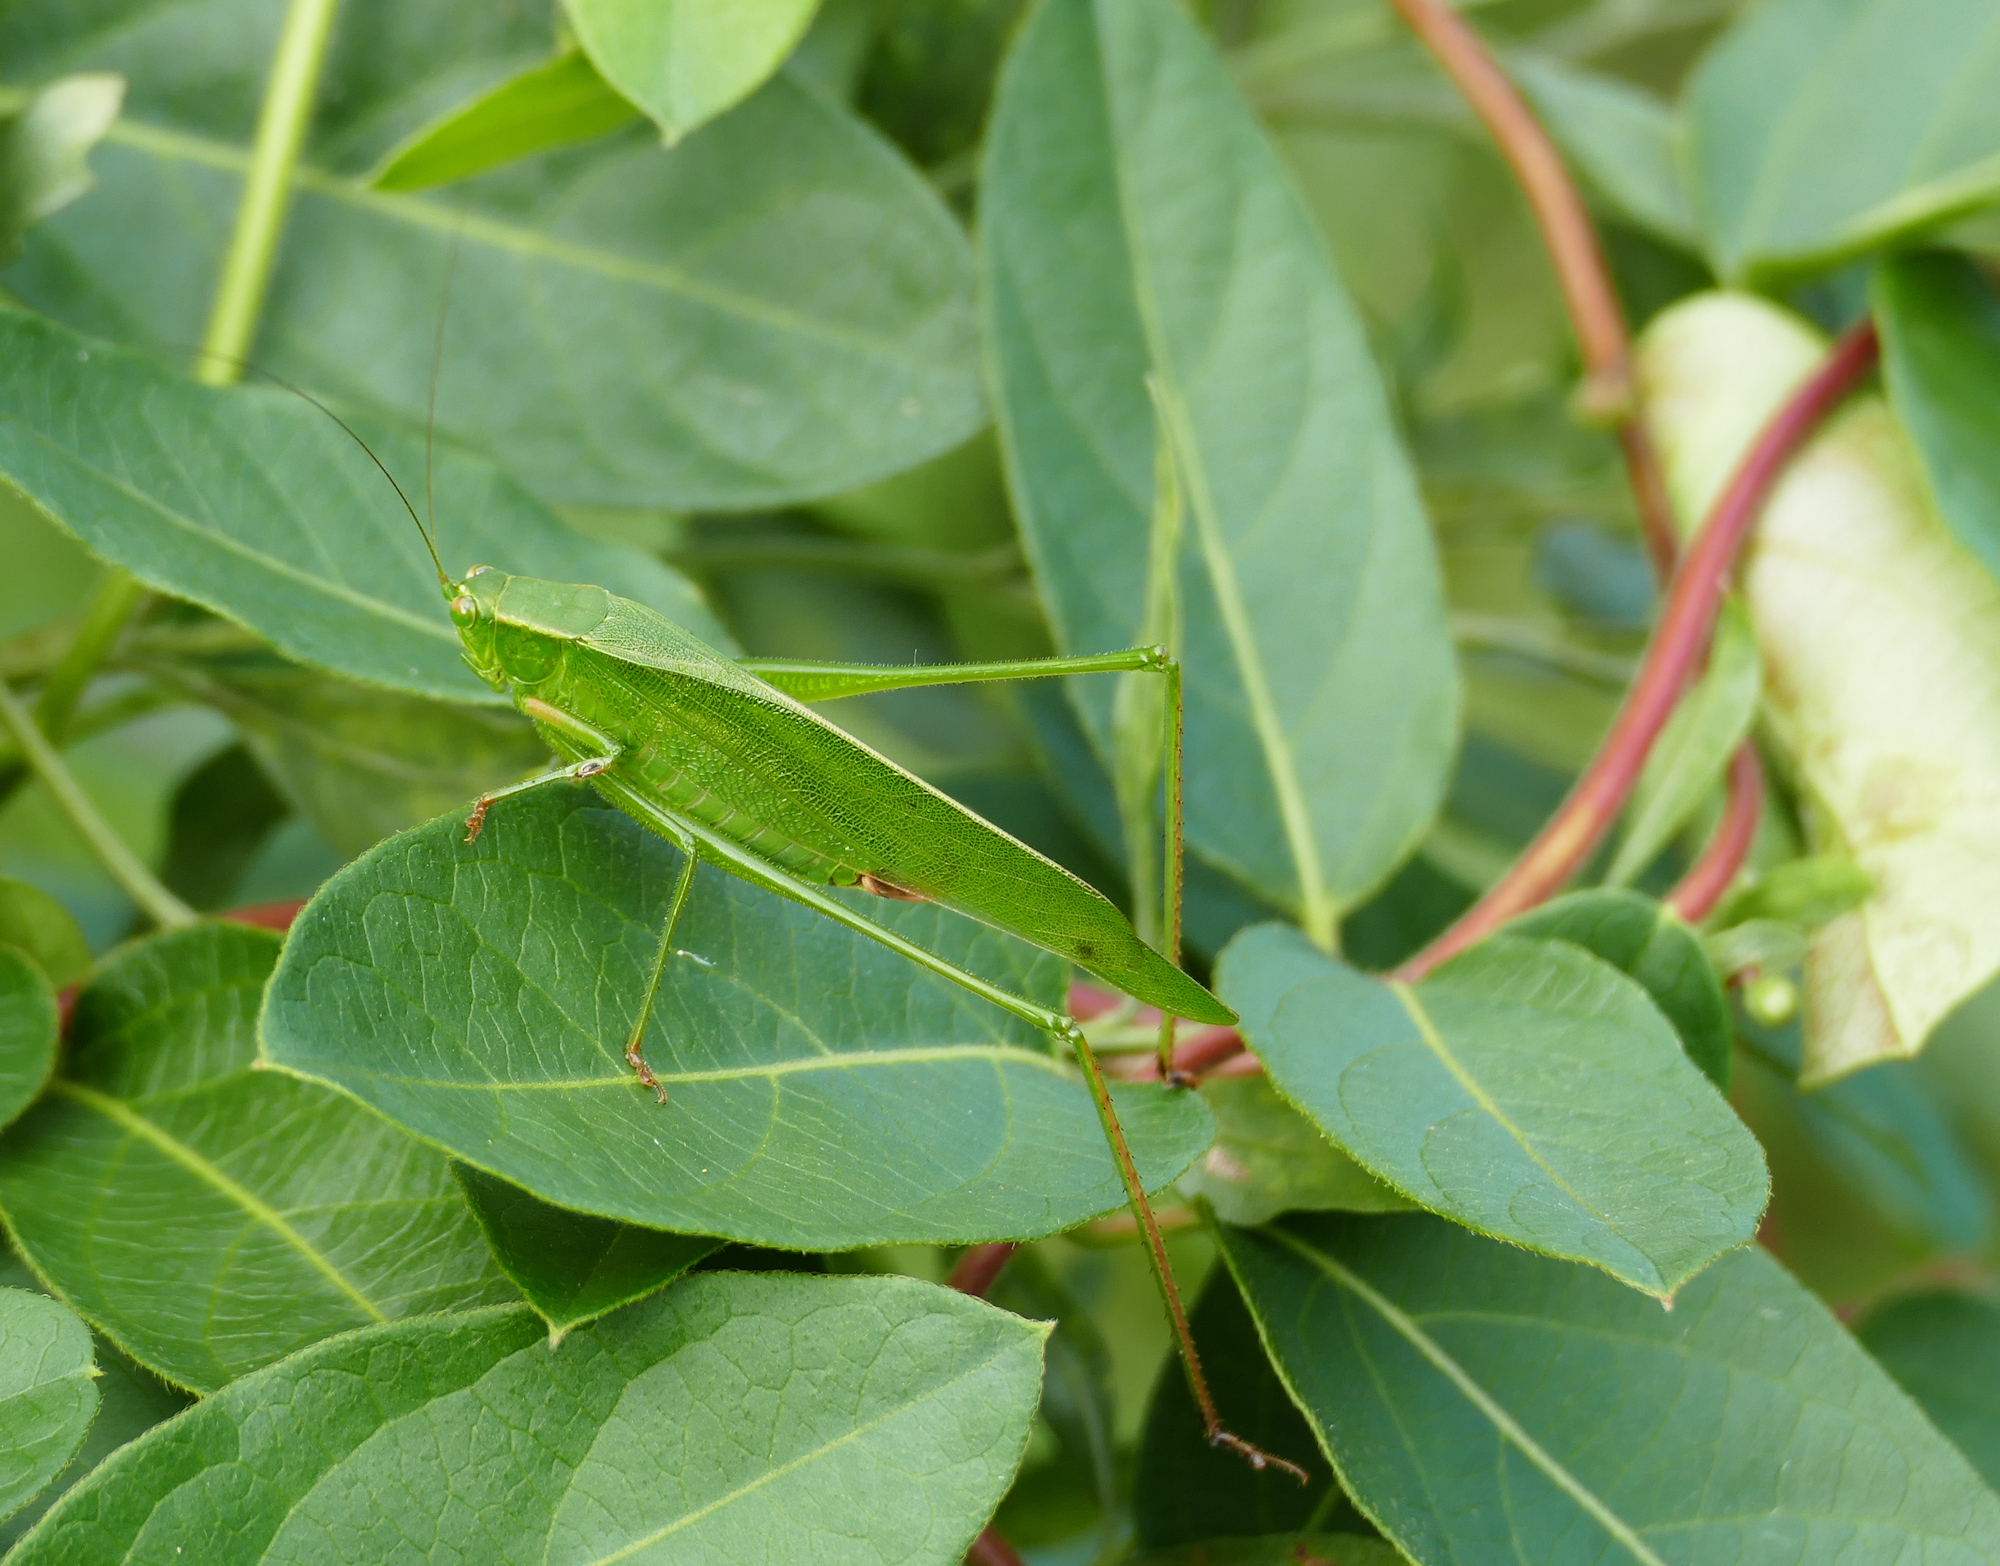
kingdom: Animalia
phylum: Arthropoda
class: Insecta
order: Orthoptera
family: Tettigoniidae
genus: Scudderia
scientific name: Scudderia furcata
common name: Fork-tailed bush katydid
